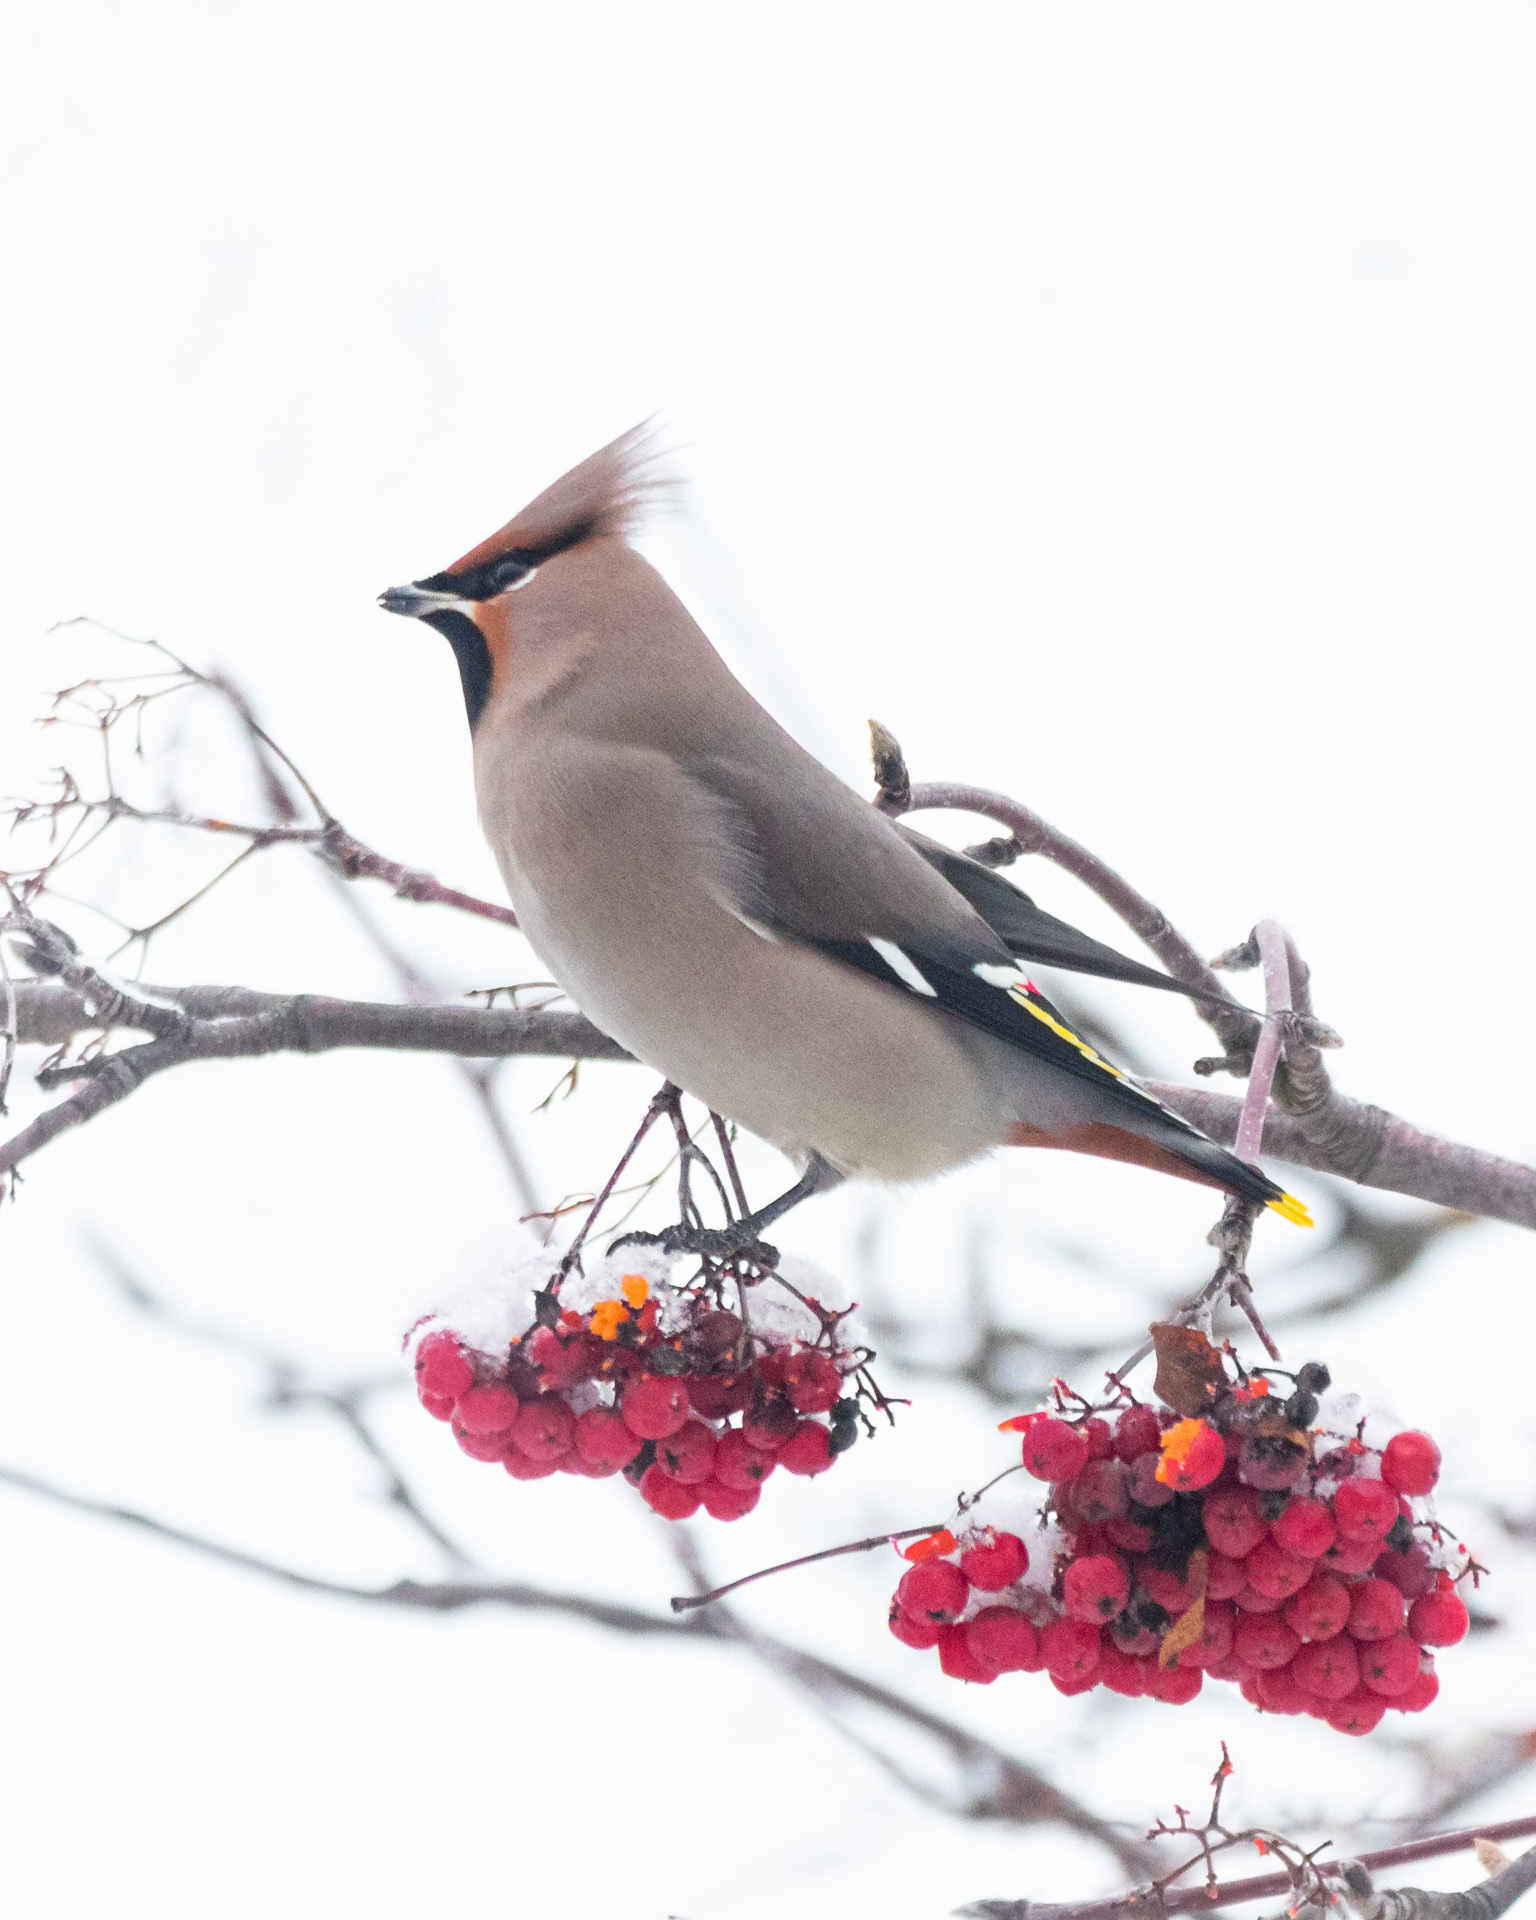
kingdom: Animalia
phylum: Chordata
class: Aves
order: Passeriformes
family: Bombycillidae
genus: Bombycilla
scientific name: Bombycilla garrulus
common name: Bohemian waxwing
